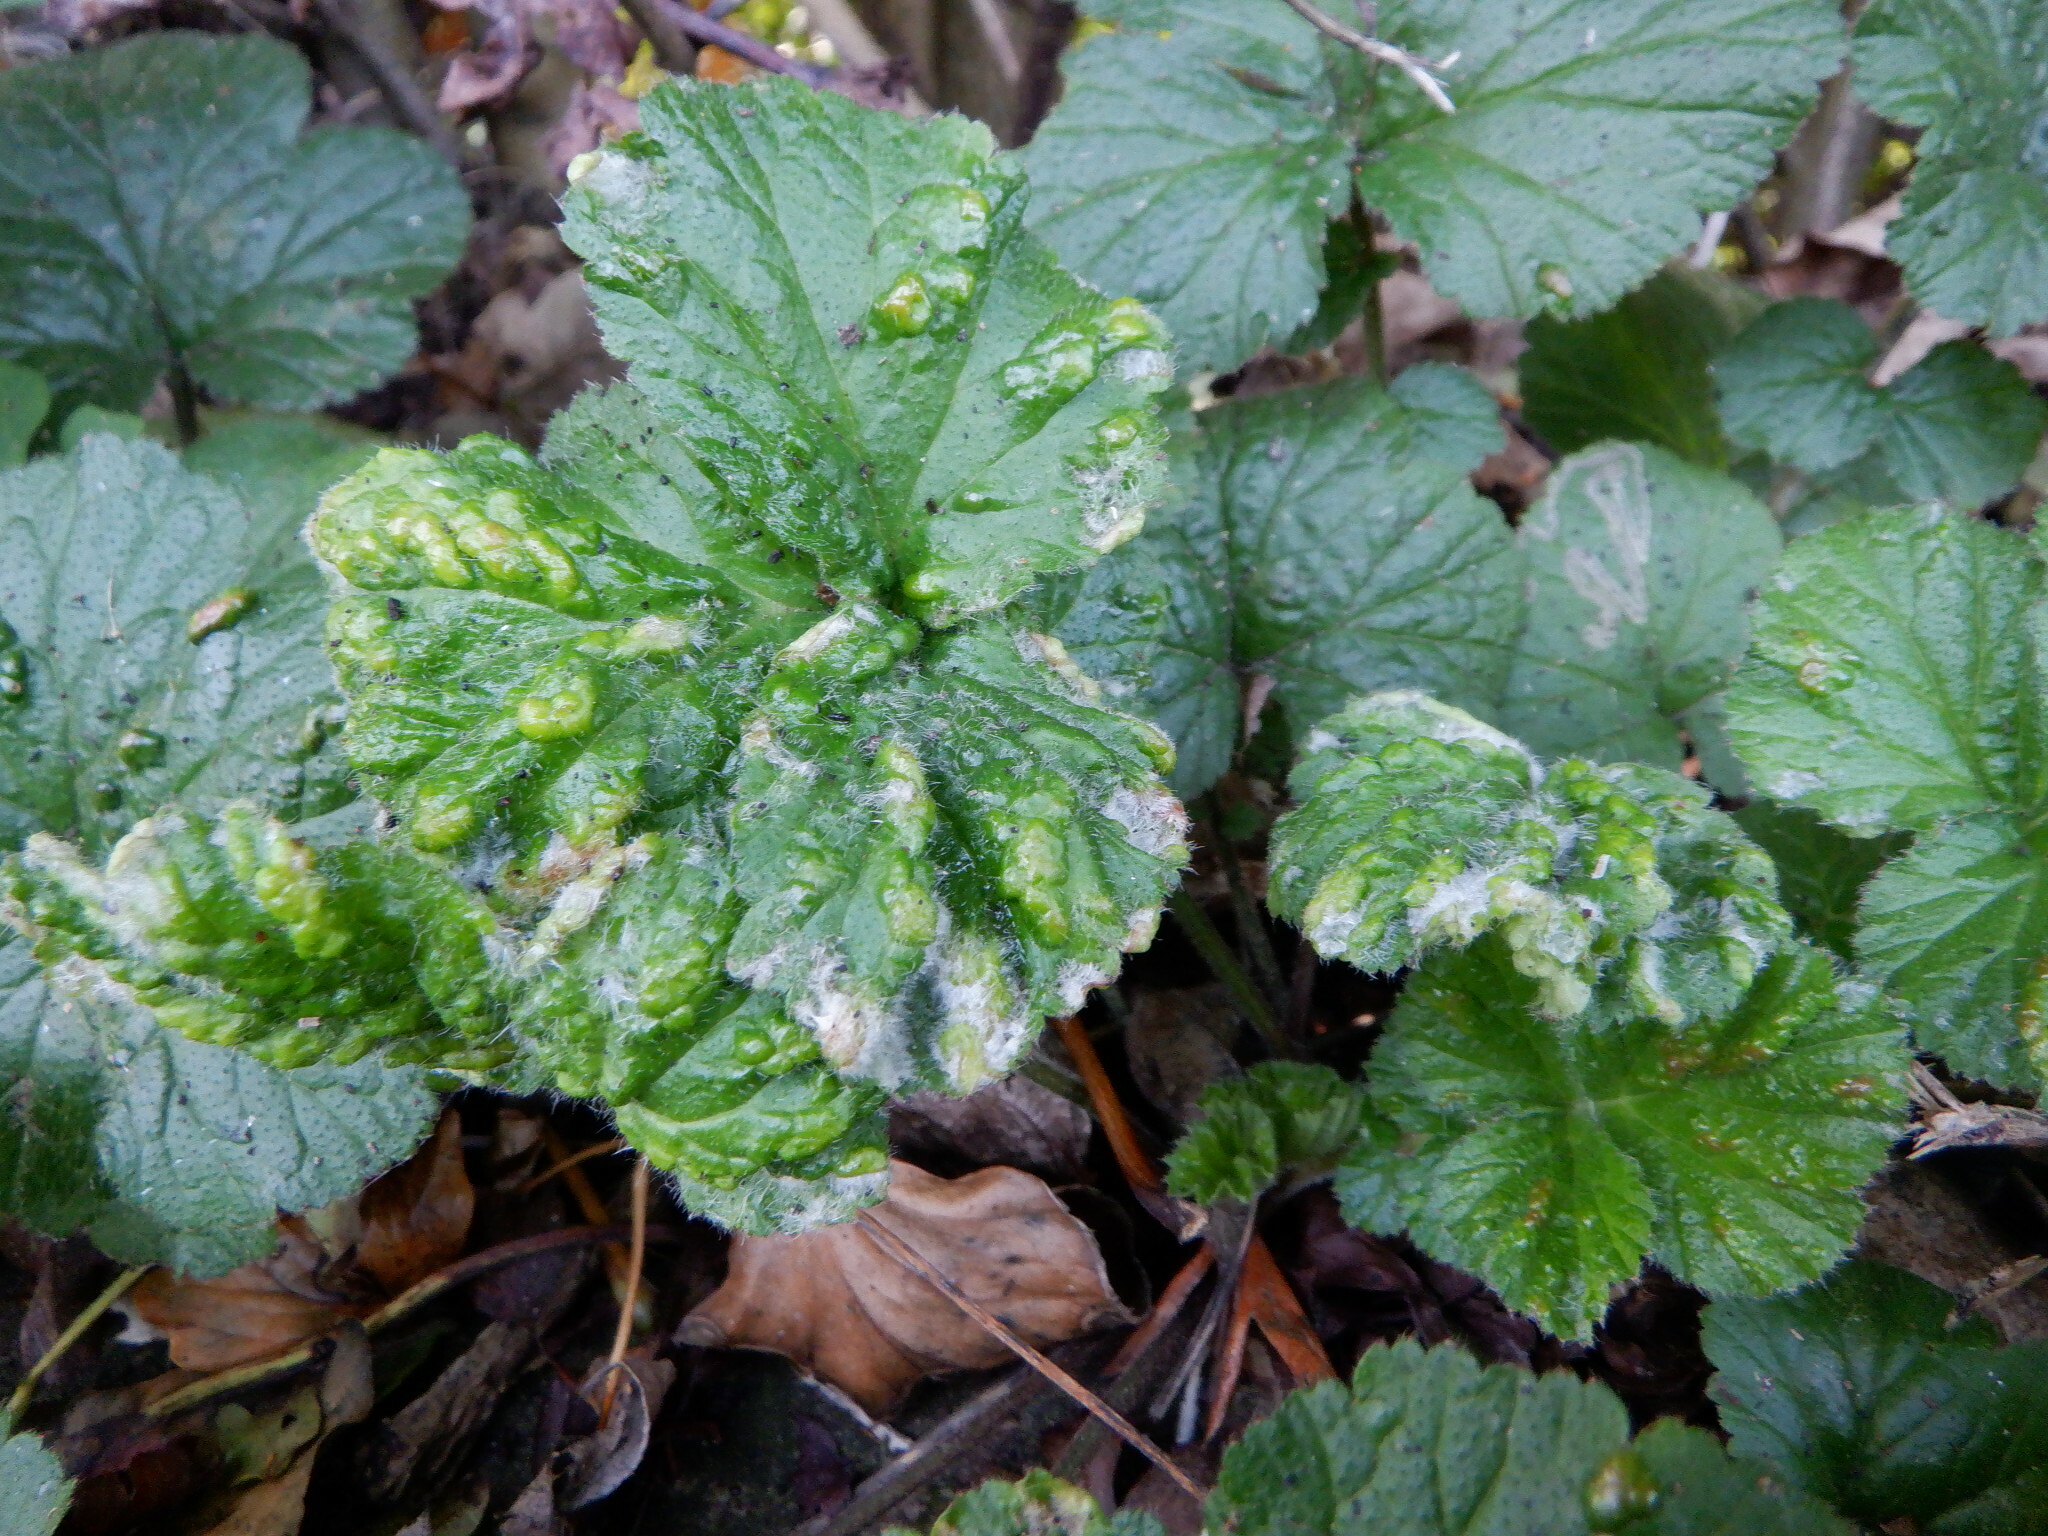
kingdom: Animalia
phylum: Arthropoda
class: Arachnida
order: Trombidiformes
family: Eriophyidae
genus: Cecidophyes
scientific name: Cecidophyes nudus
